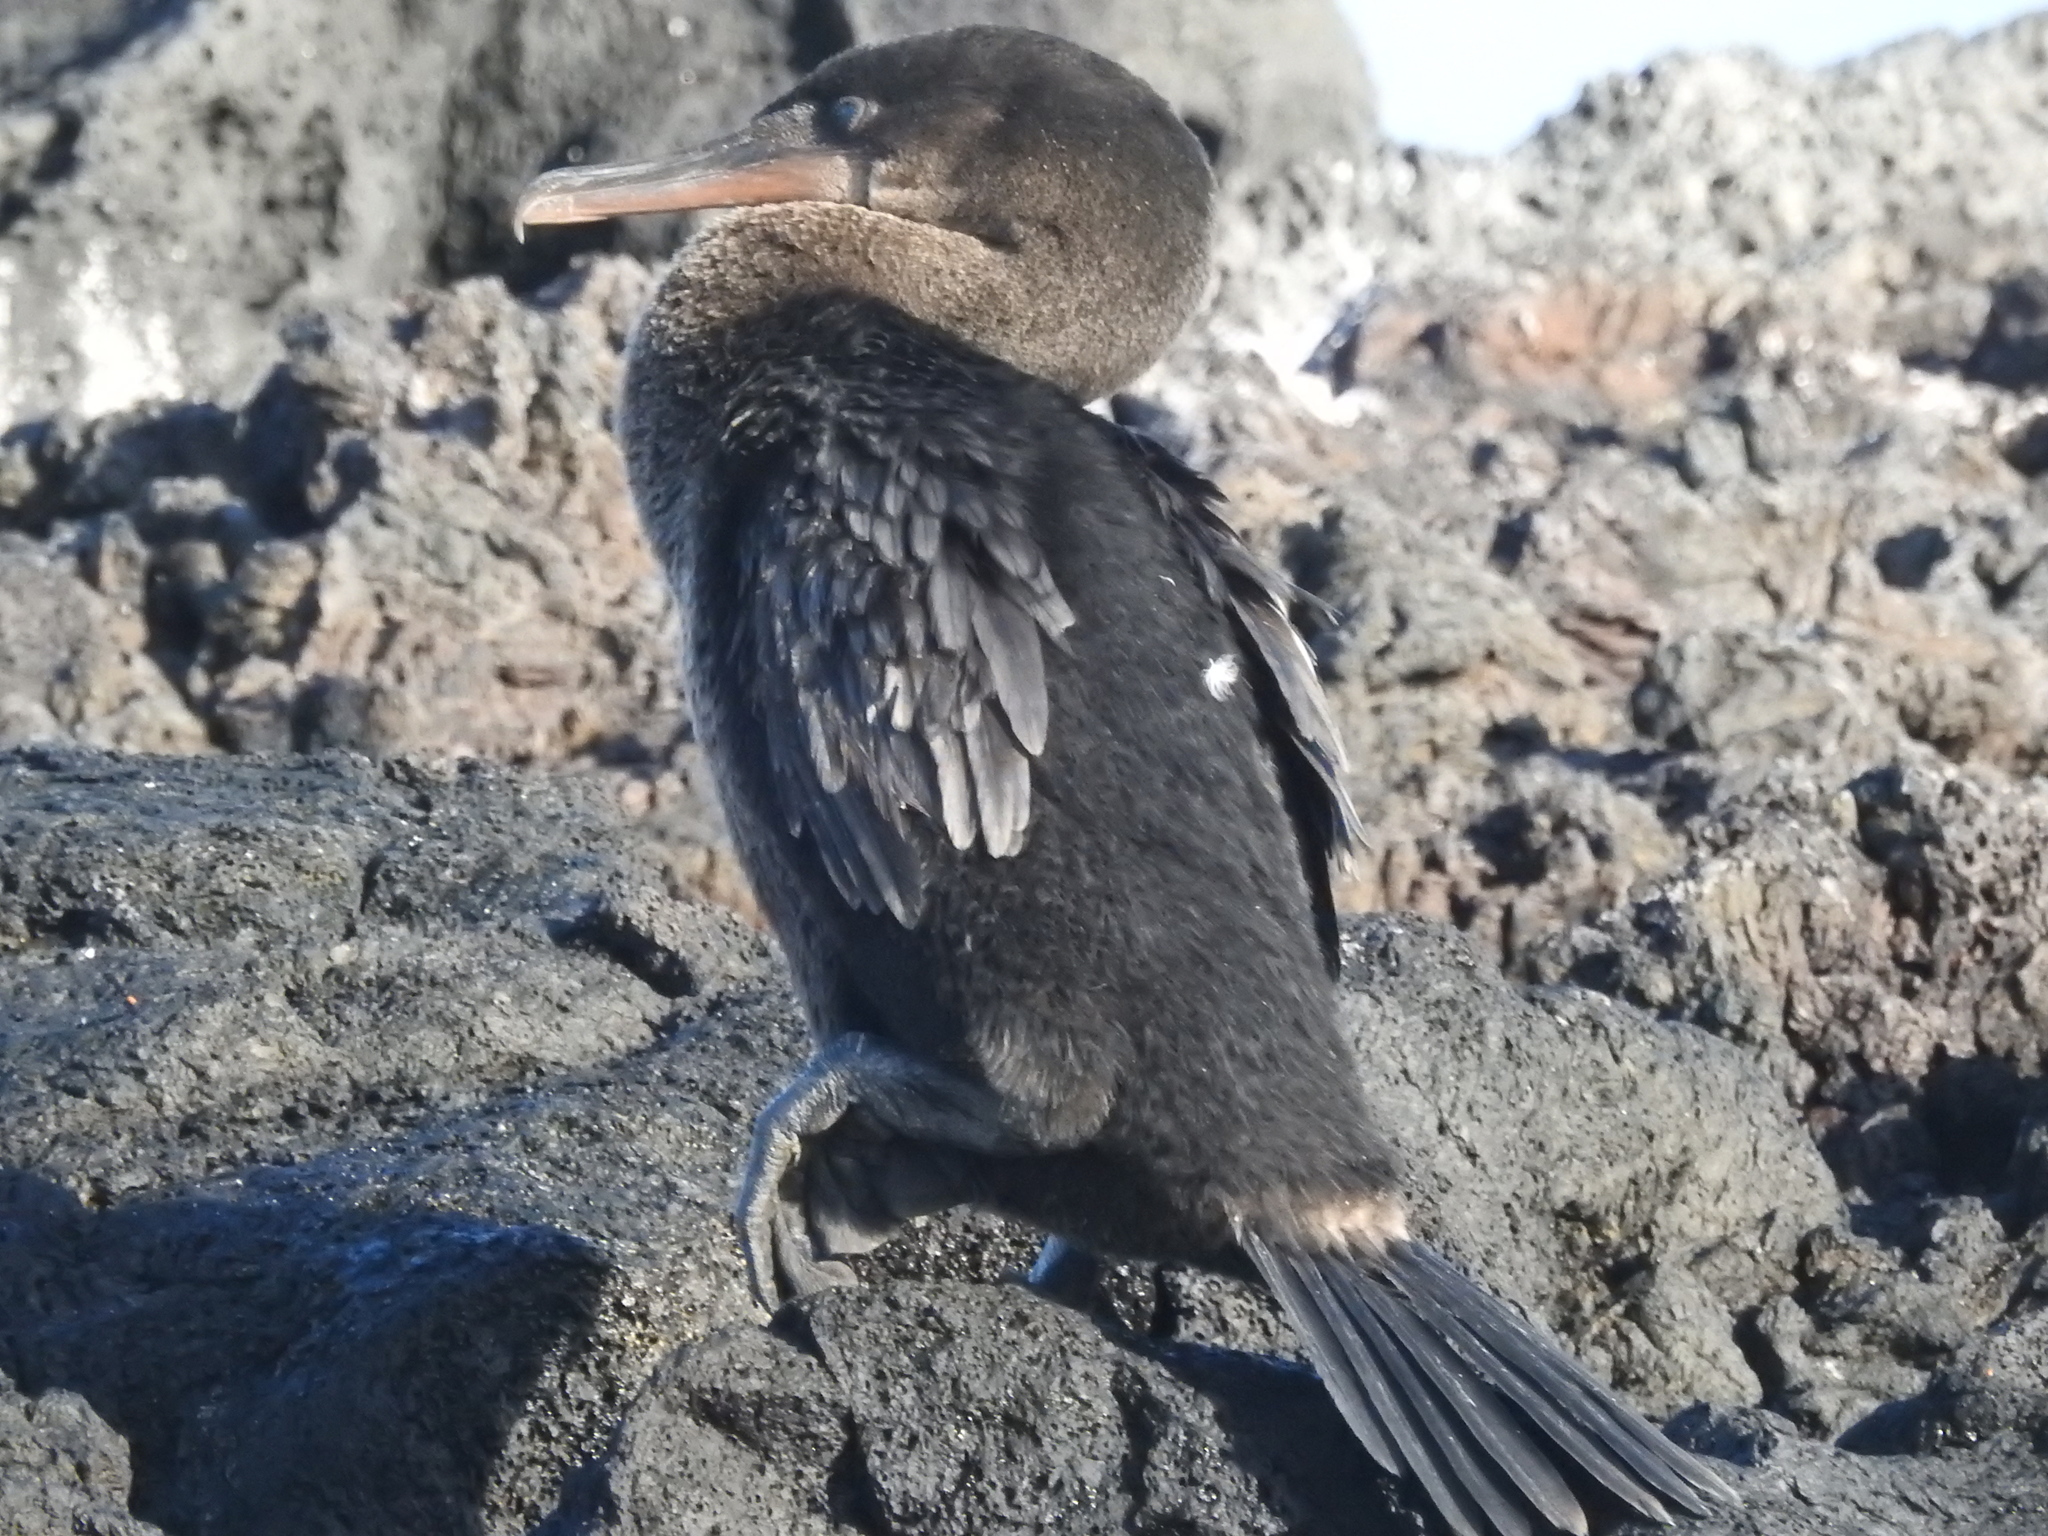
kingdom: Animalia
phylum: Chordata
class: Aves
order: Suliformes
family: Phalacrocoracidae
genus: Phalacrocorax
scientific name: Phalacrocorax harrisi
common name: Flightless cormorant
